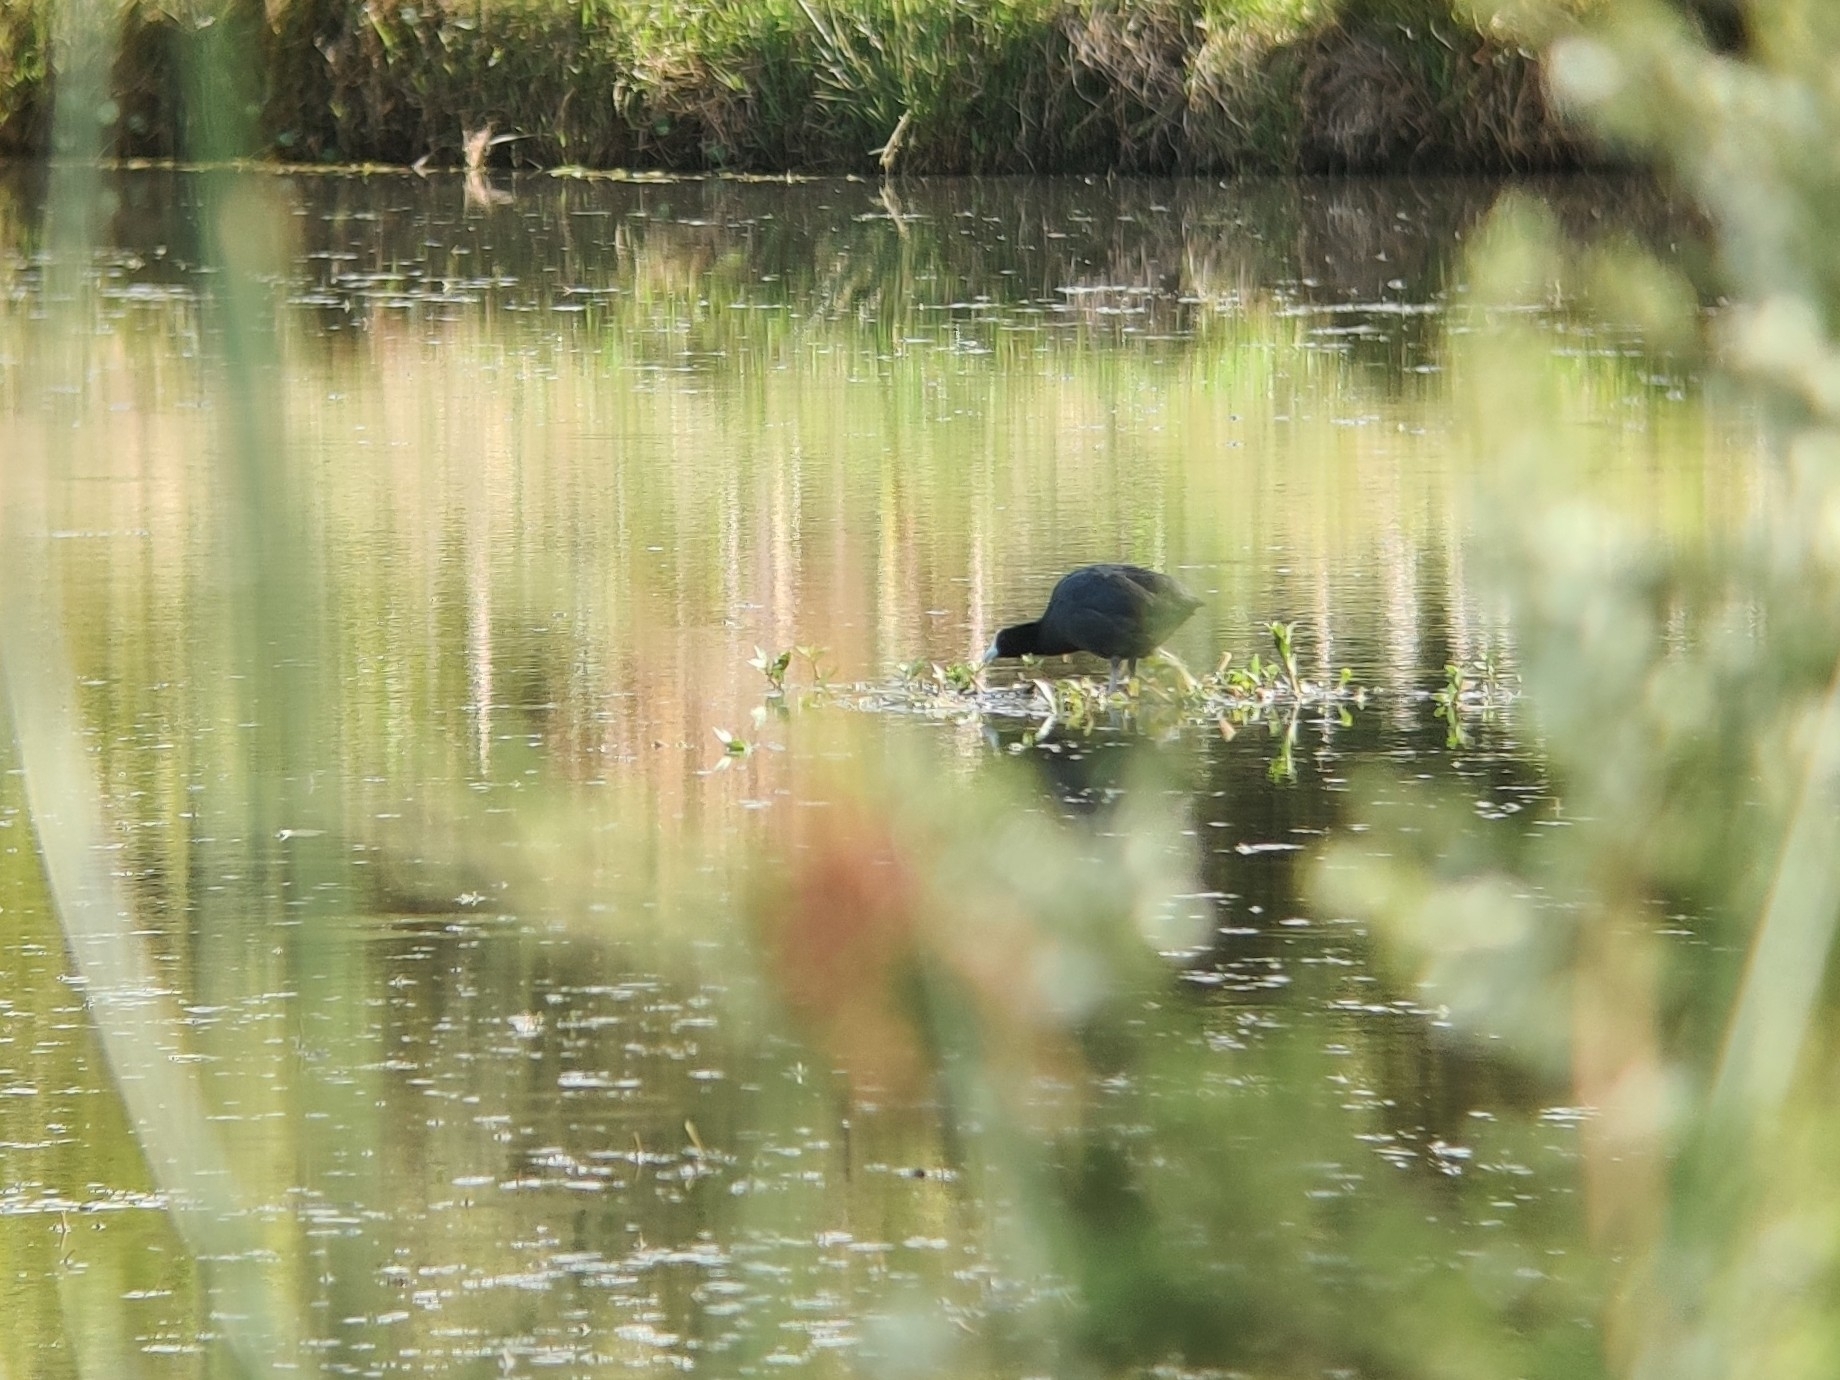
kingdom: Animalia
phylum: Chordata
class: Aves
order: Gruiformes
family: Rallidae
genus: Fulica
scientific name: Fulica atra
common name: Eurasian coot
